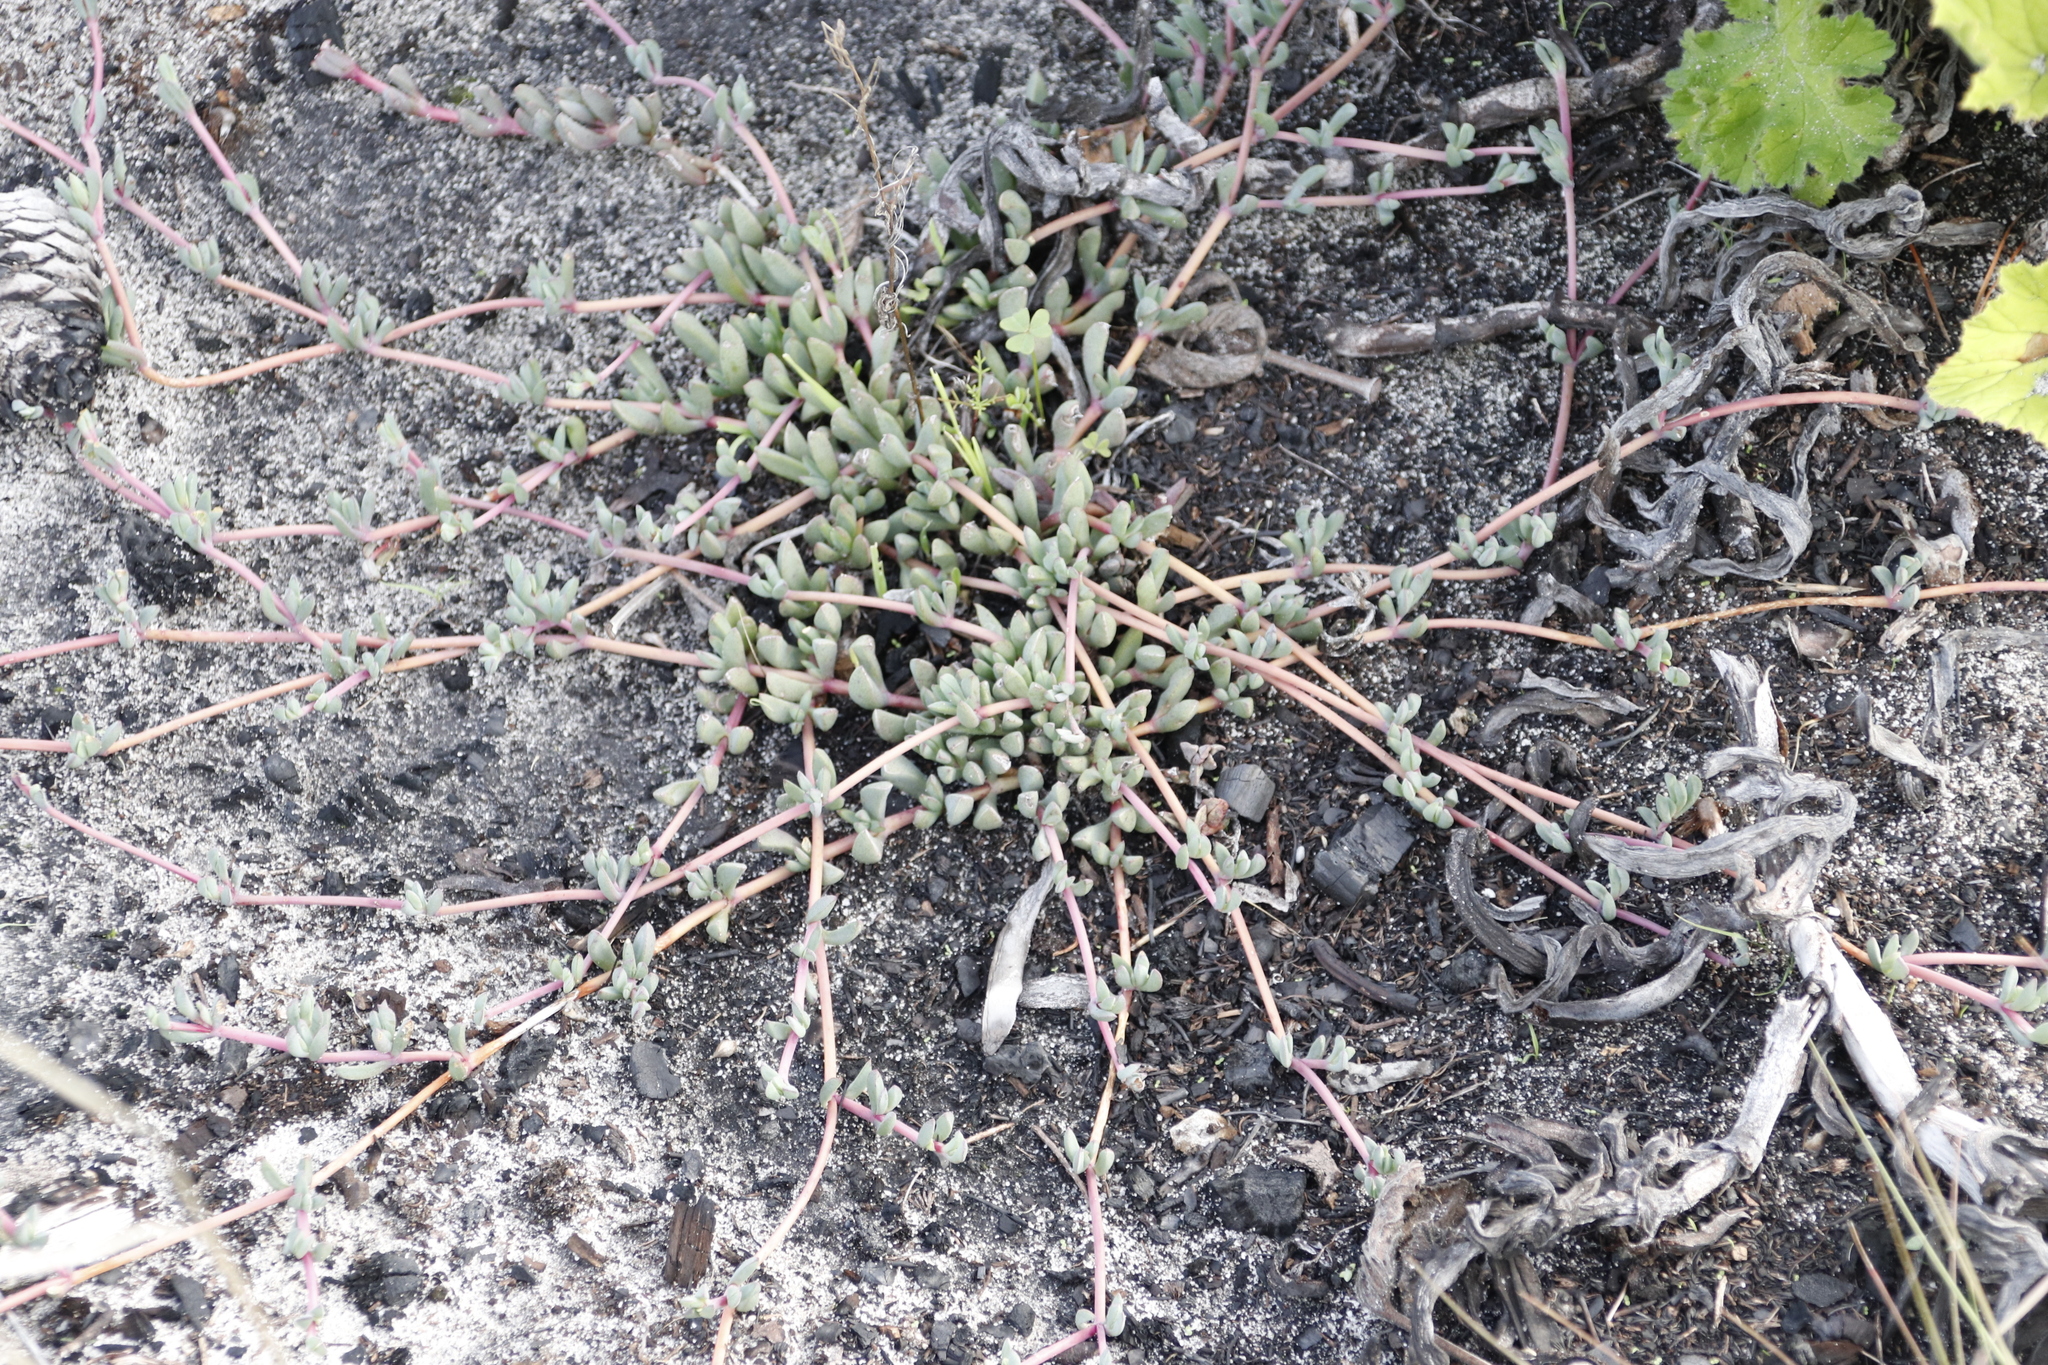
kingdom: Plantae
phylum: Tracheophyta
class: Magnoliopsida
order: Caryophyllales
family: Aizoaceae
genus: Lampranthus
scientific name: Lampranthus reptans
